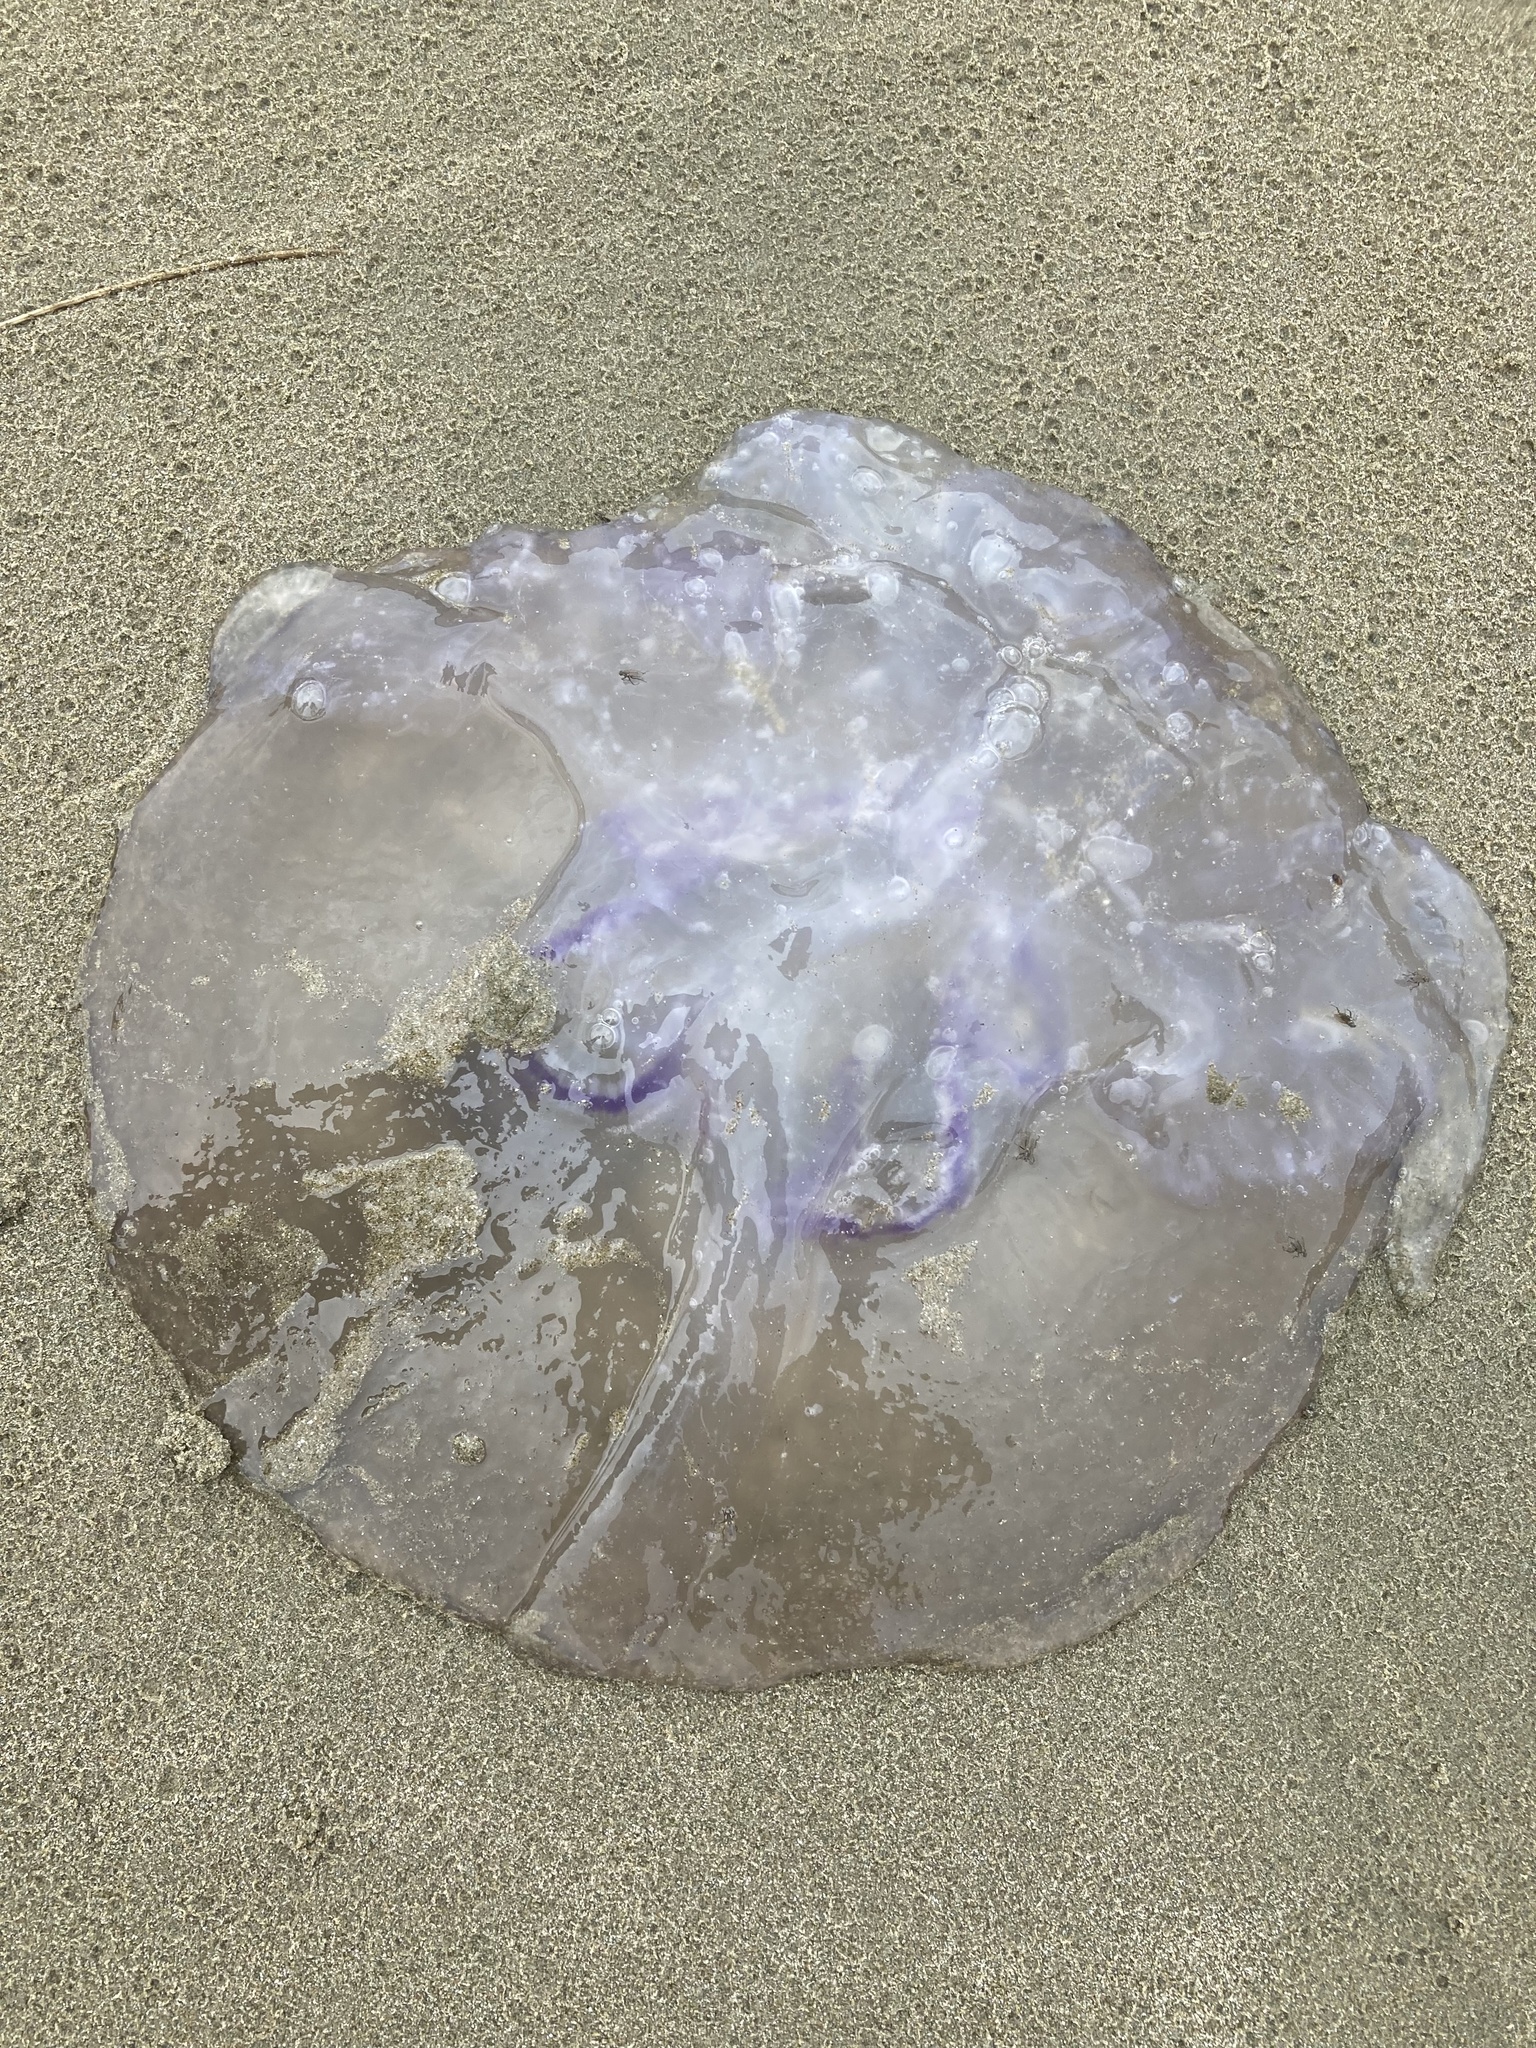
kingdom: Animalia
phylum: Cnidaria
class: Scyphozoa
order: Semaeostomeae
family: Ulmaridae
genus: Aurelia
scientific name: Aurelia labiata
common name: Pacific moon jelly
